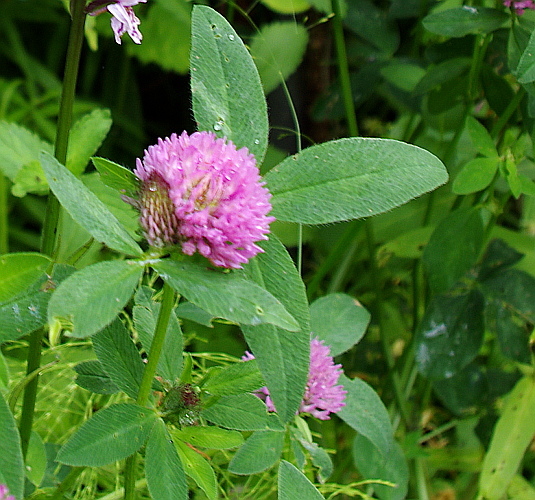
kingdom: Plantae
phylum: Tracheophyta
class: Magnoliopsida
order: Fabales
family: Fabaceae
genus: Trifolium
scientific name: Trifolium pratense
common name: Red clover
